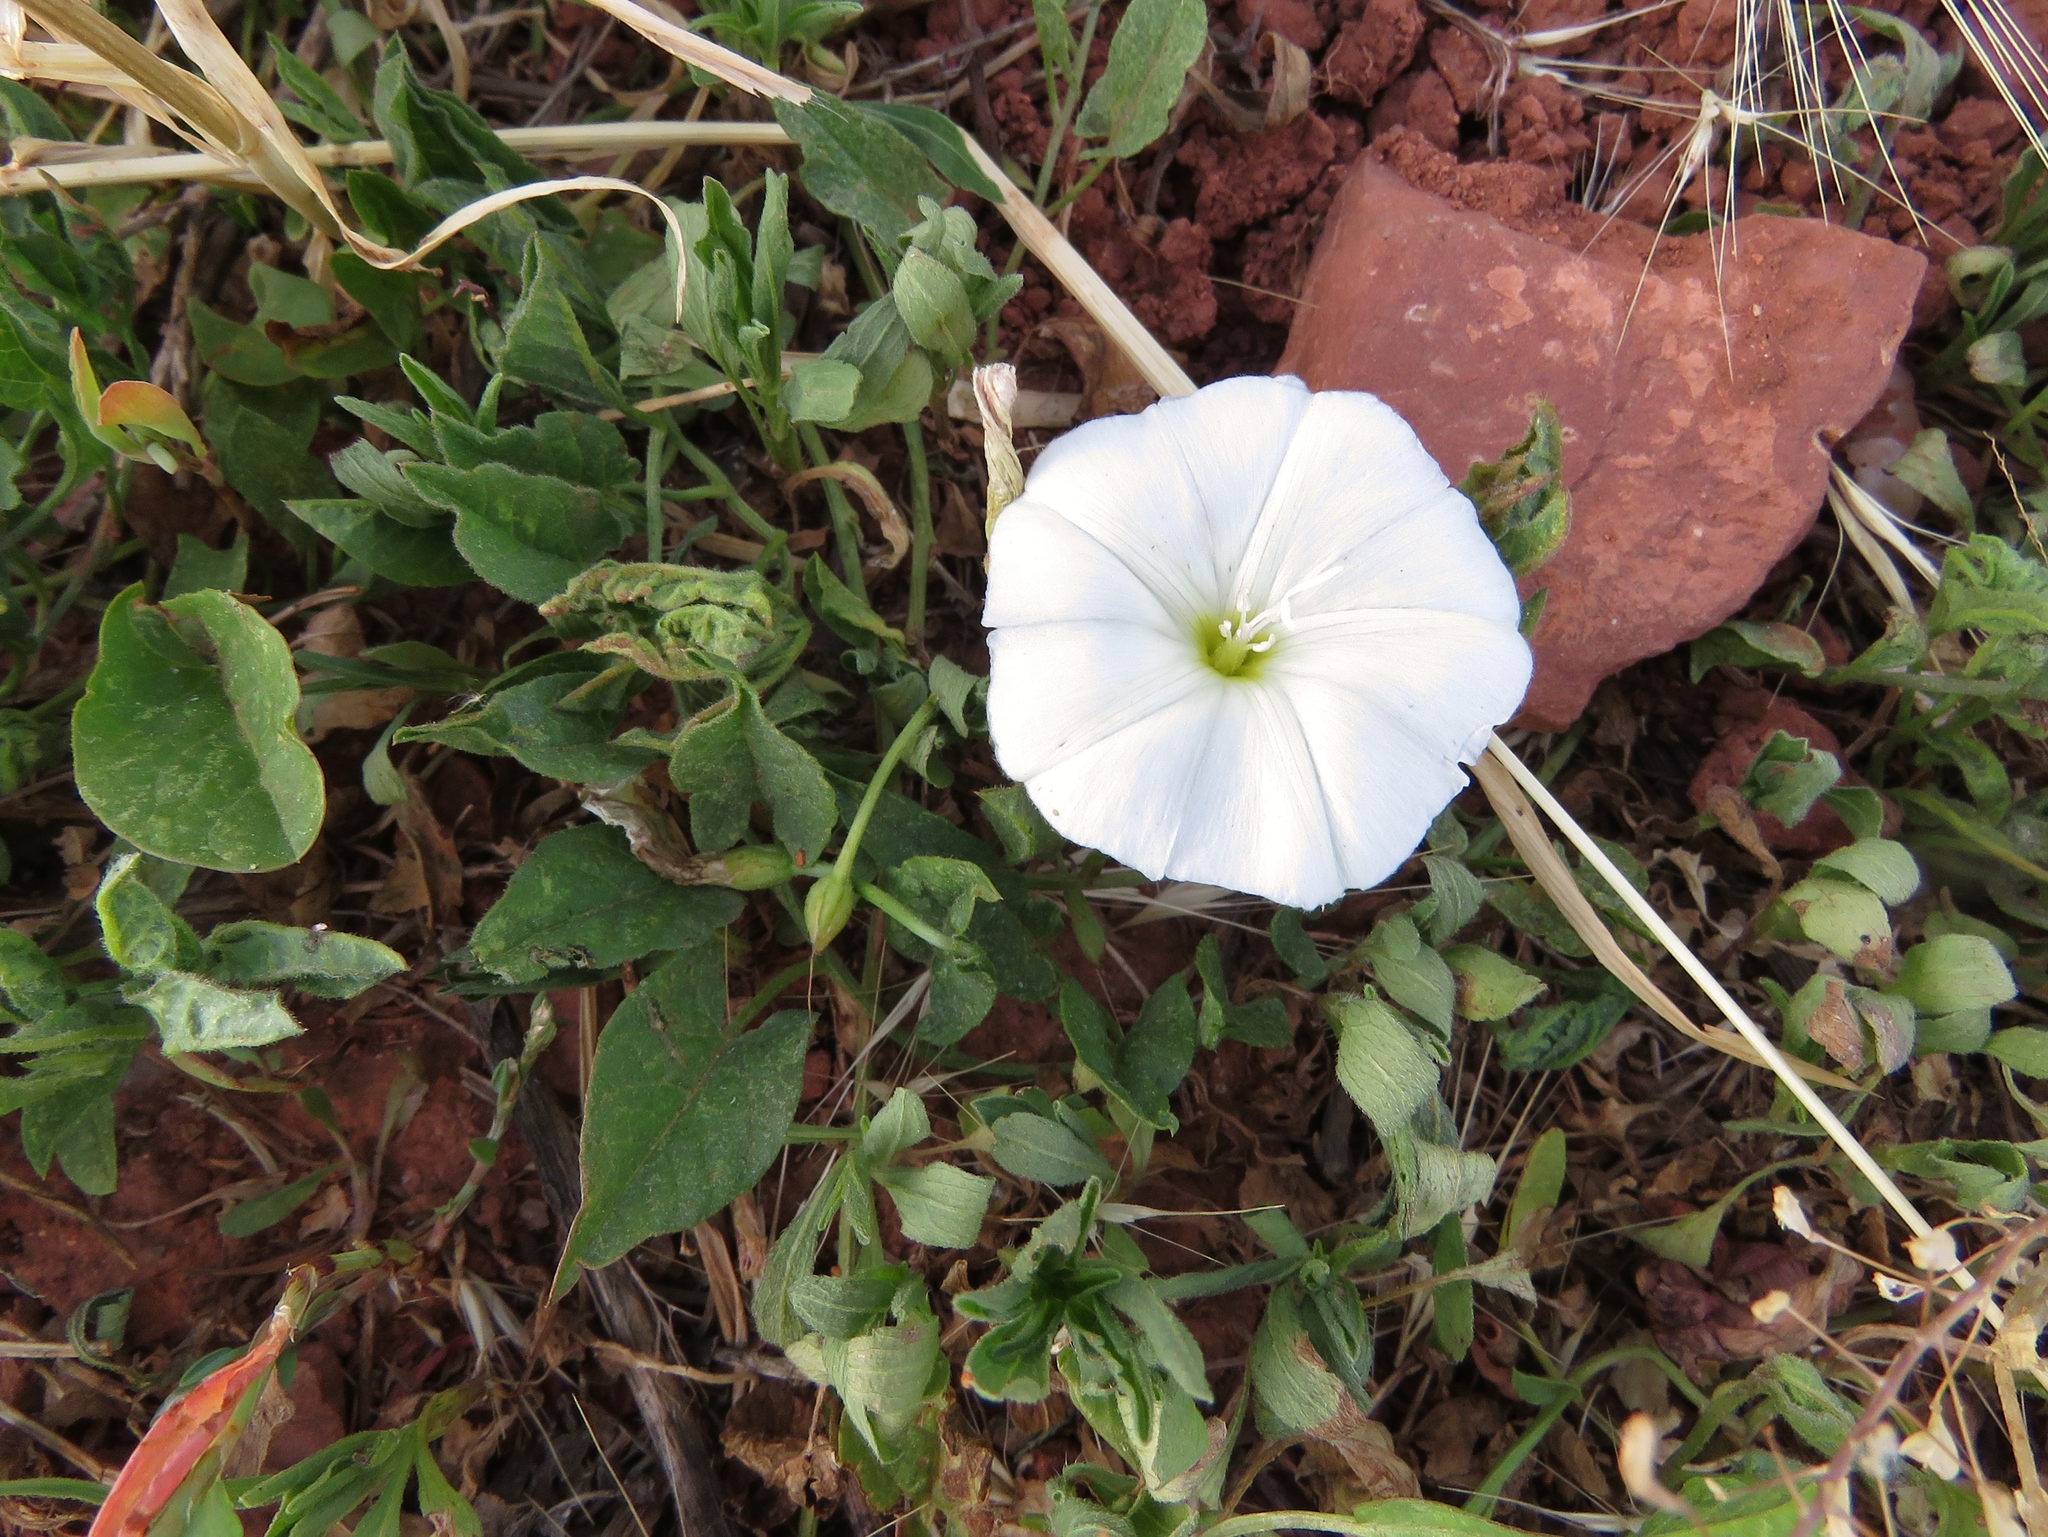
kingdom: Plantae
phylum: Tracheophyta
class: Magnoliopsida
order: Solanales
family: Convolvulaceae
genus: Convolvulus
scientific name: Convolvulus arvensis
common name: Field bindweed
